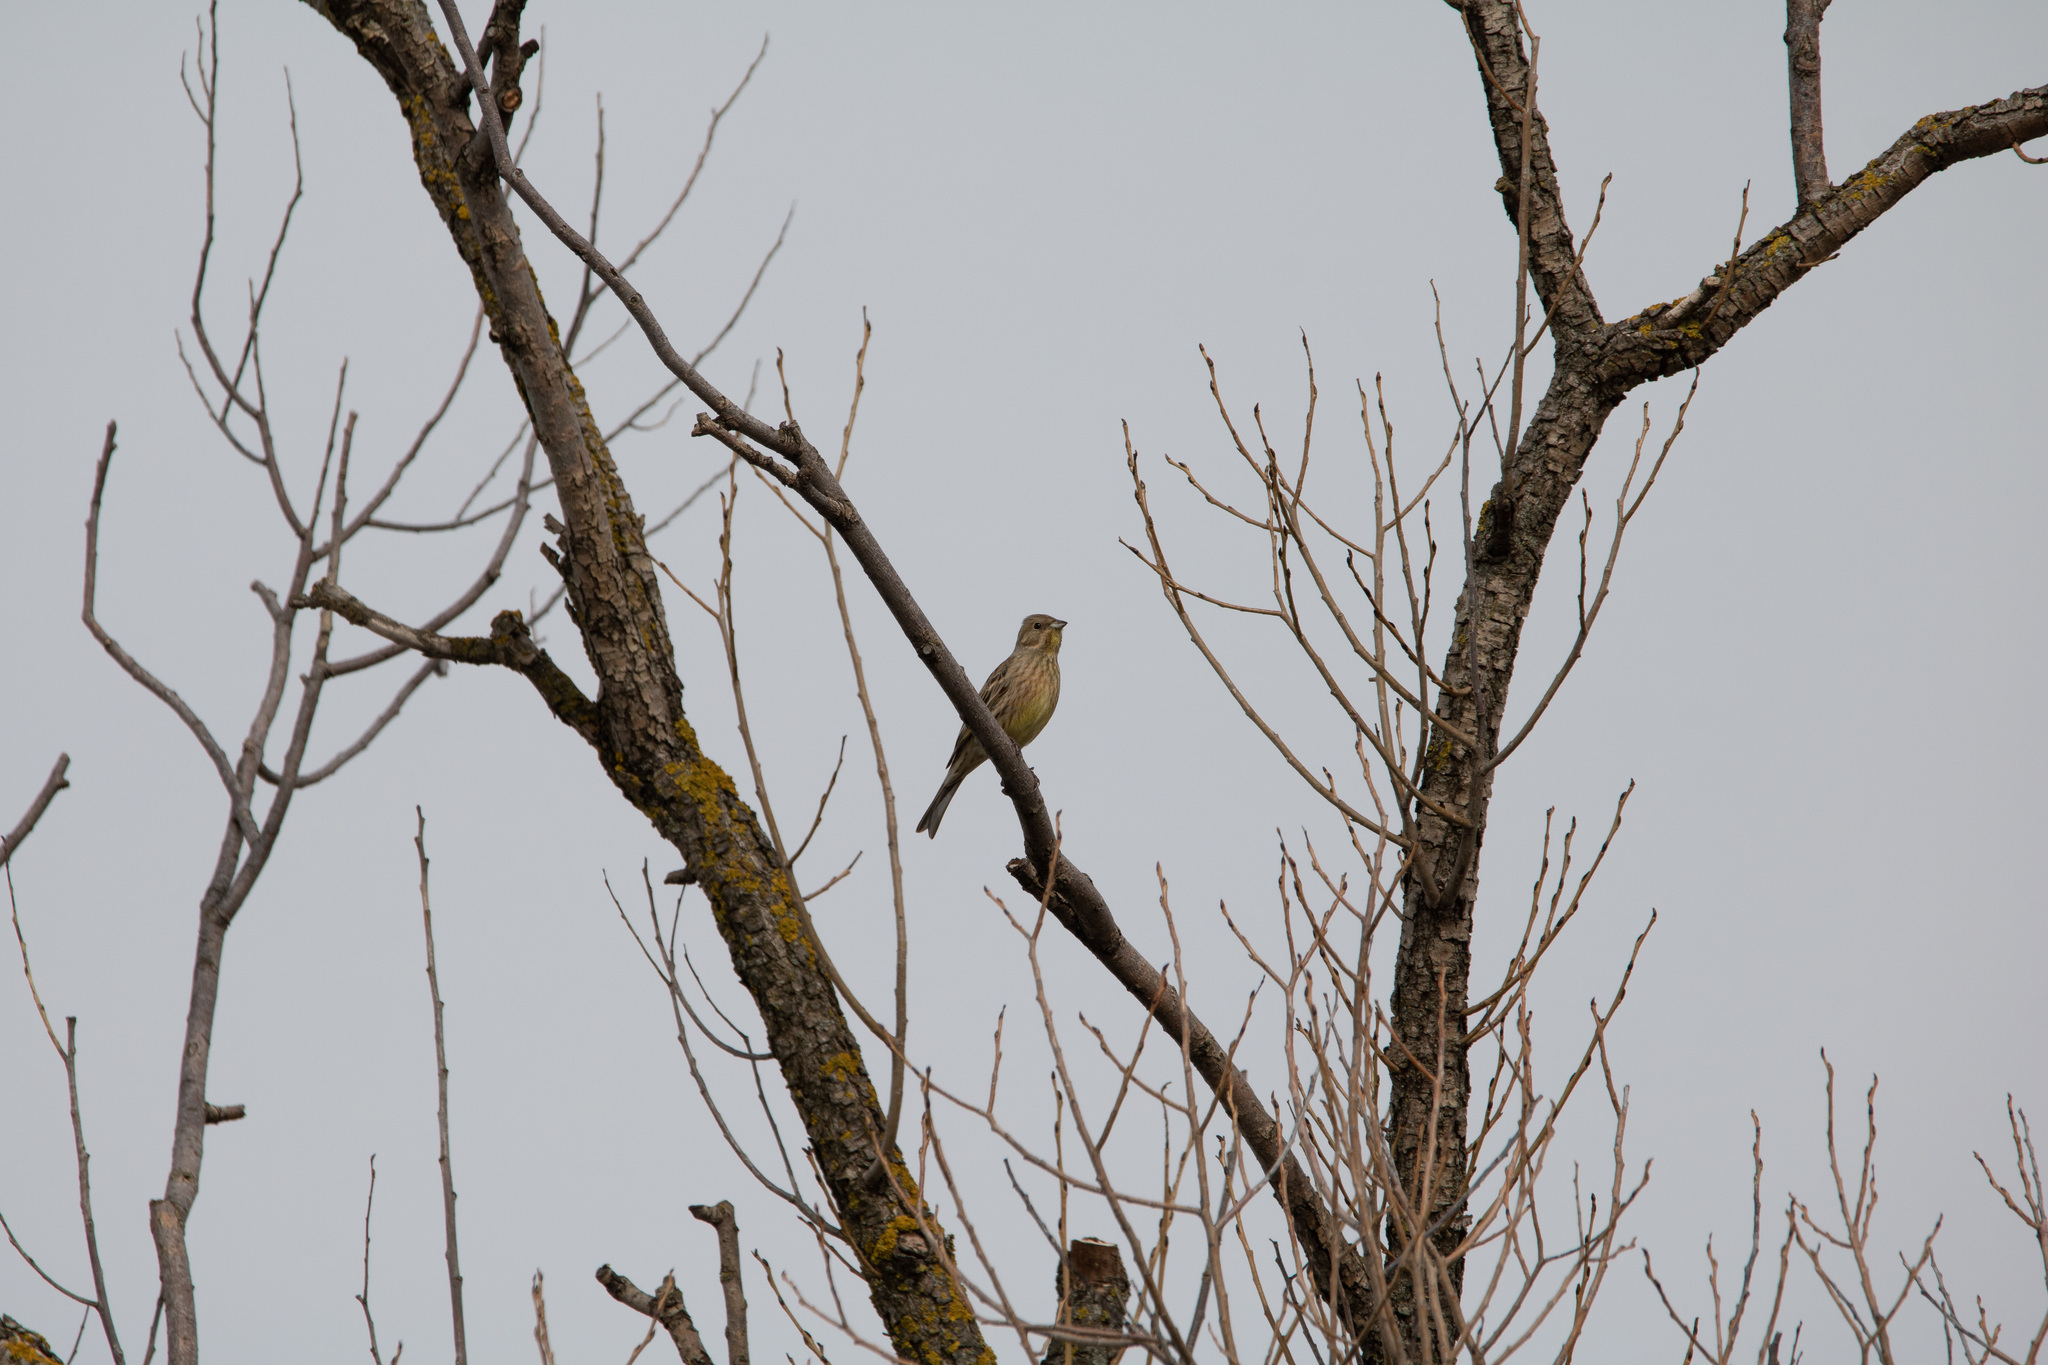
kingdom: Animalia
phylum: Chordata
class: Aves
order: Passeriformes
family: Emberizidae
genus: Emberiza
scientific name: Emberiza citrinella
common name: Yellowhammer
